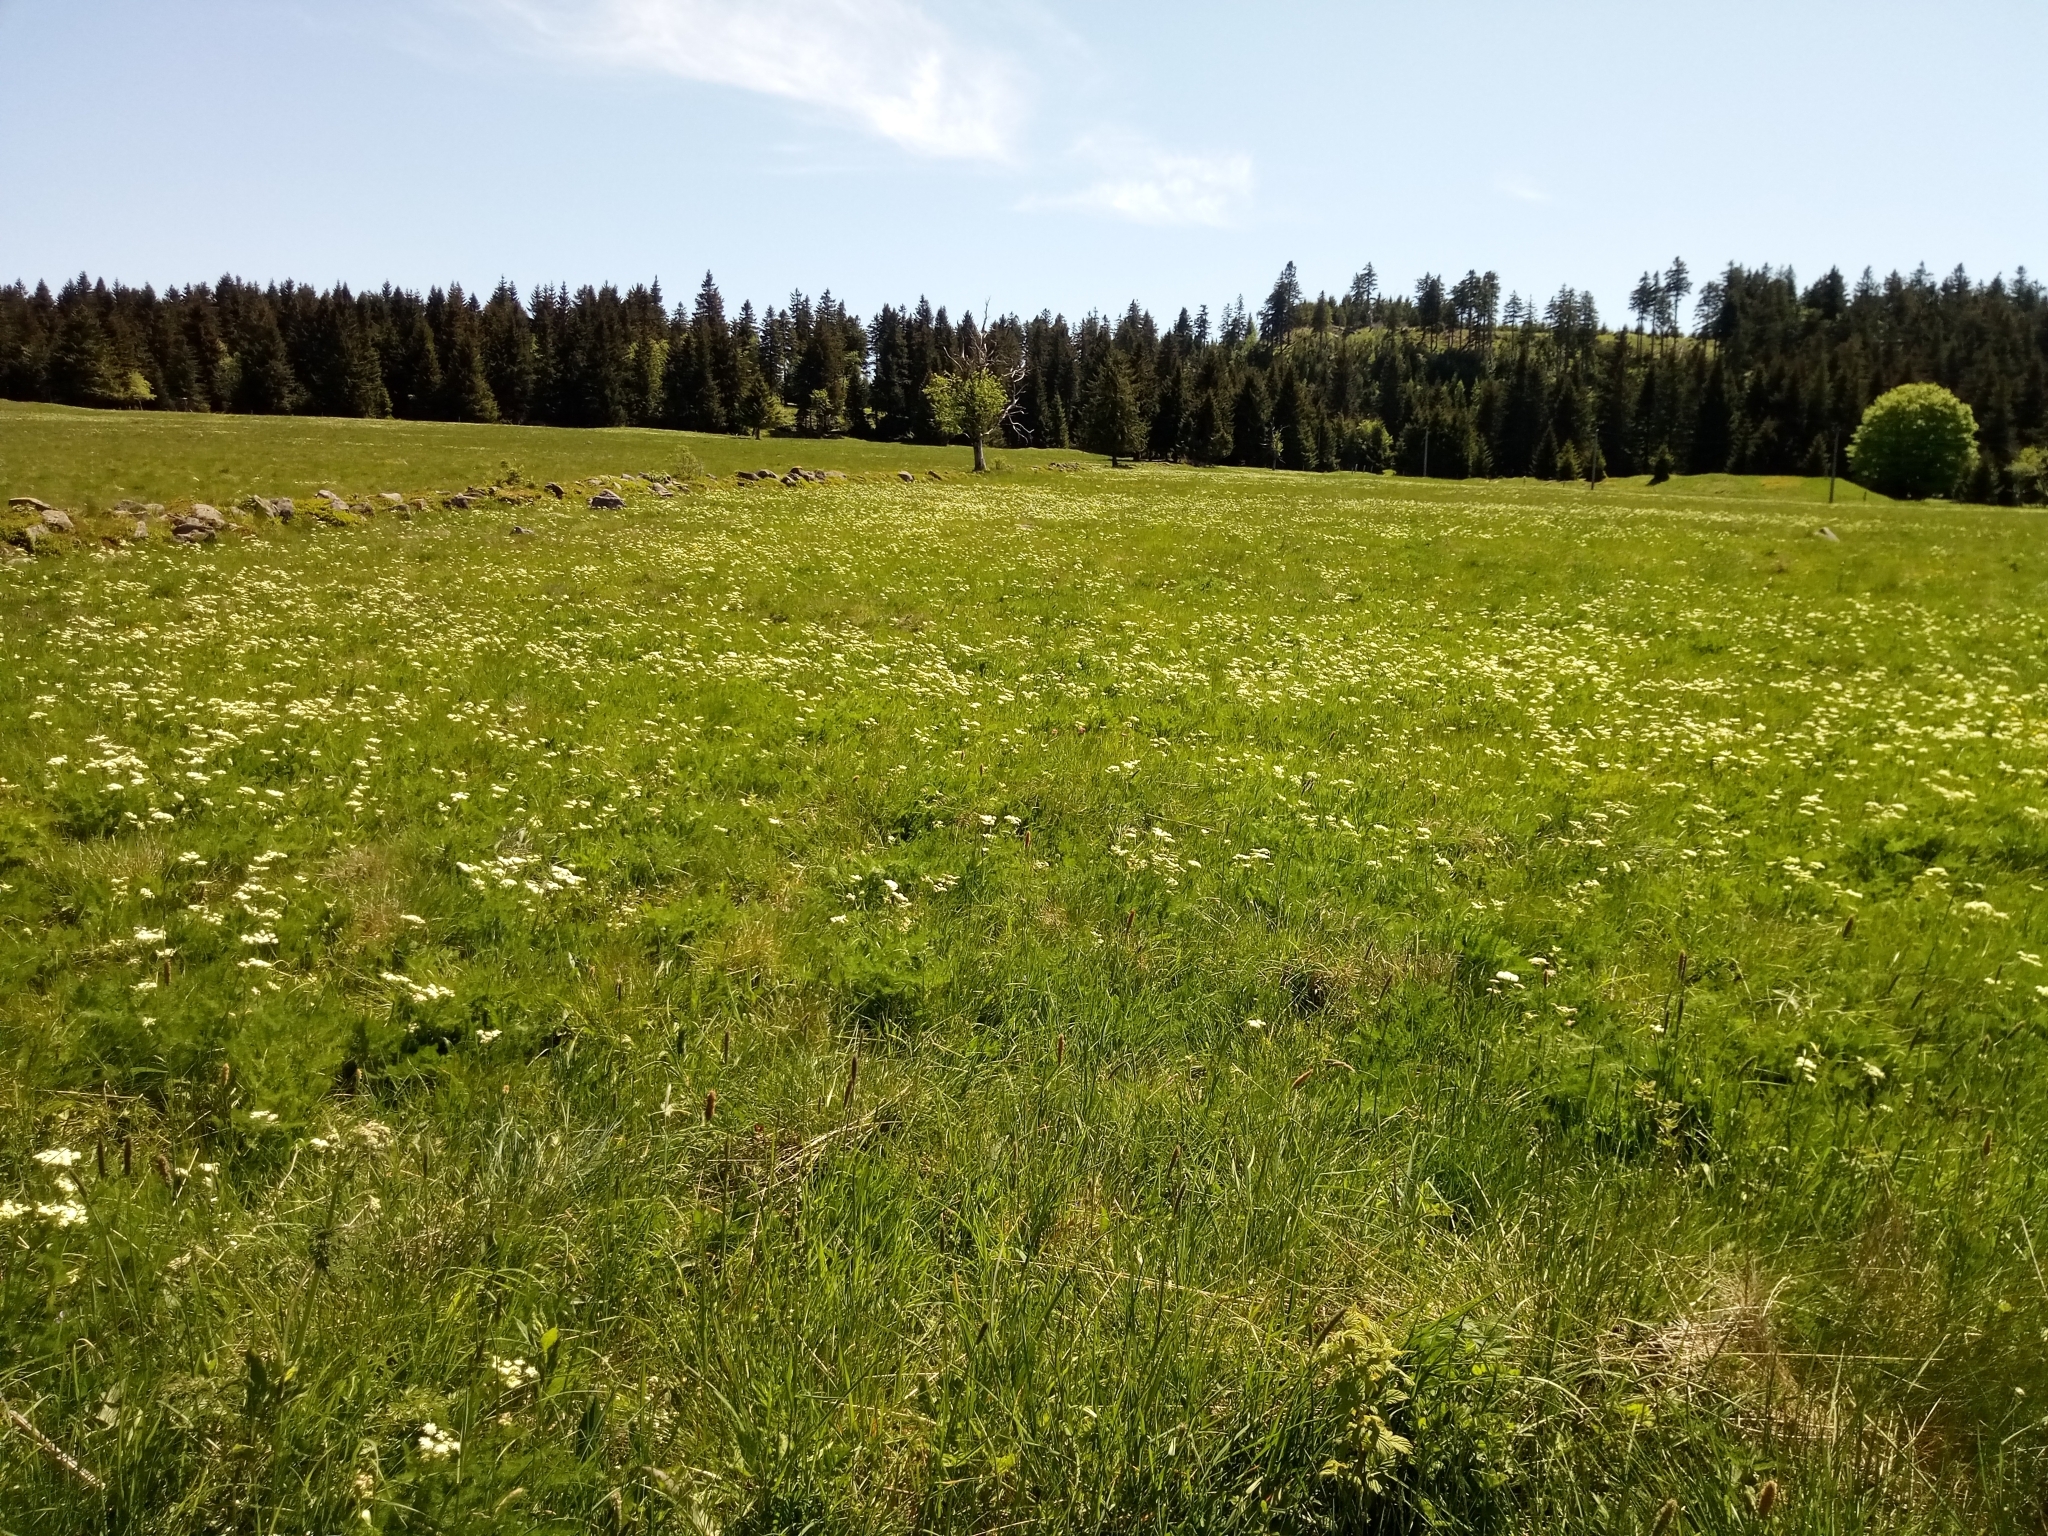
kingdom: Plantae
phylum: Tracheophyta
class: Magnoliopsida
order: Apiales
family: Apiaceae
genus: Meum
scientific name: Meum athamanticum
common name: Spignel
